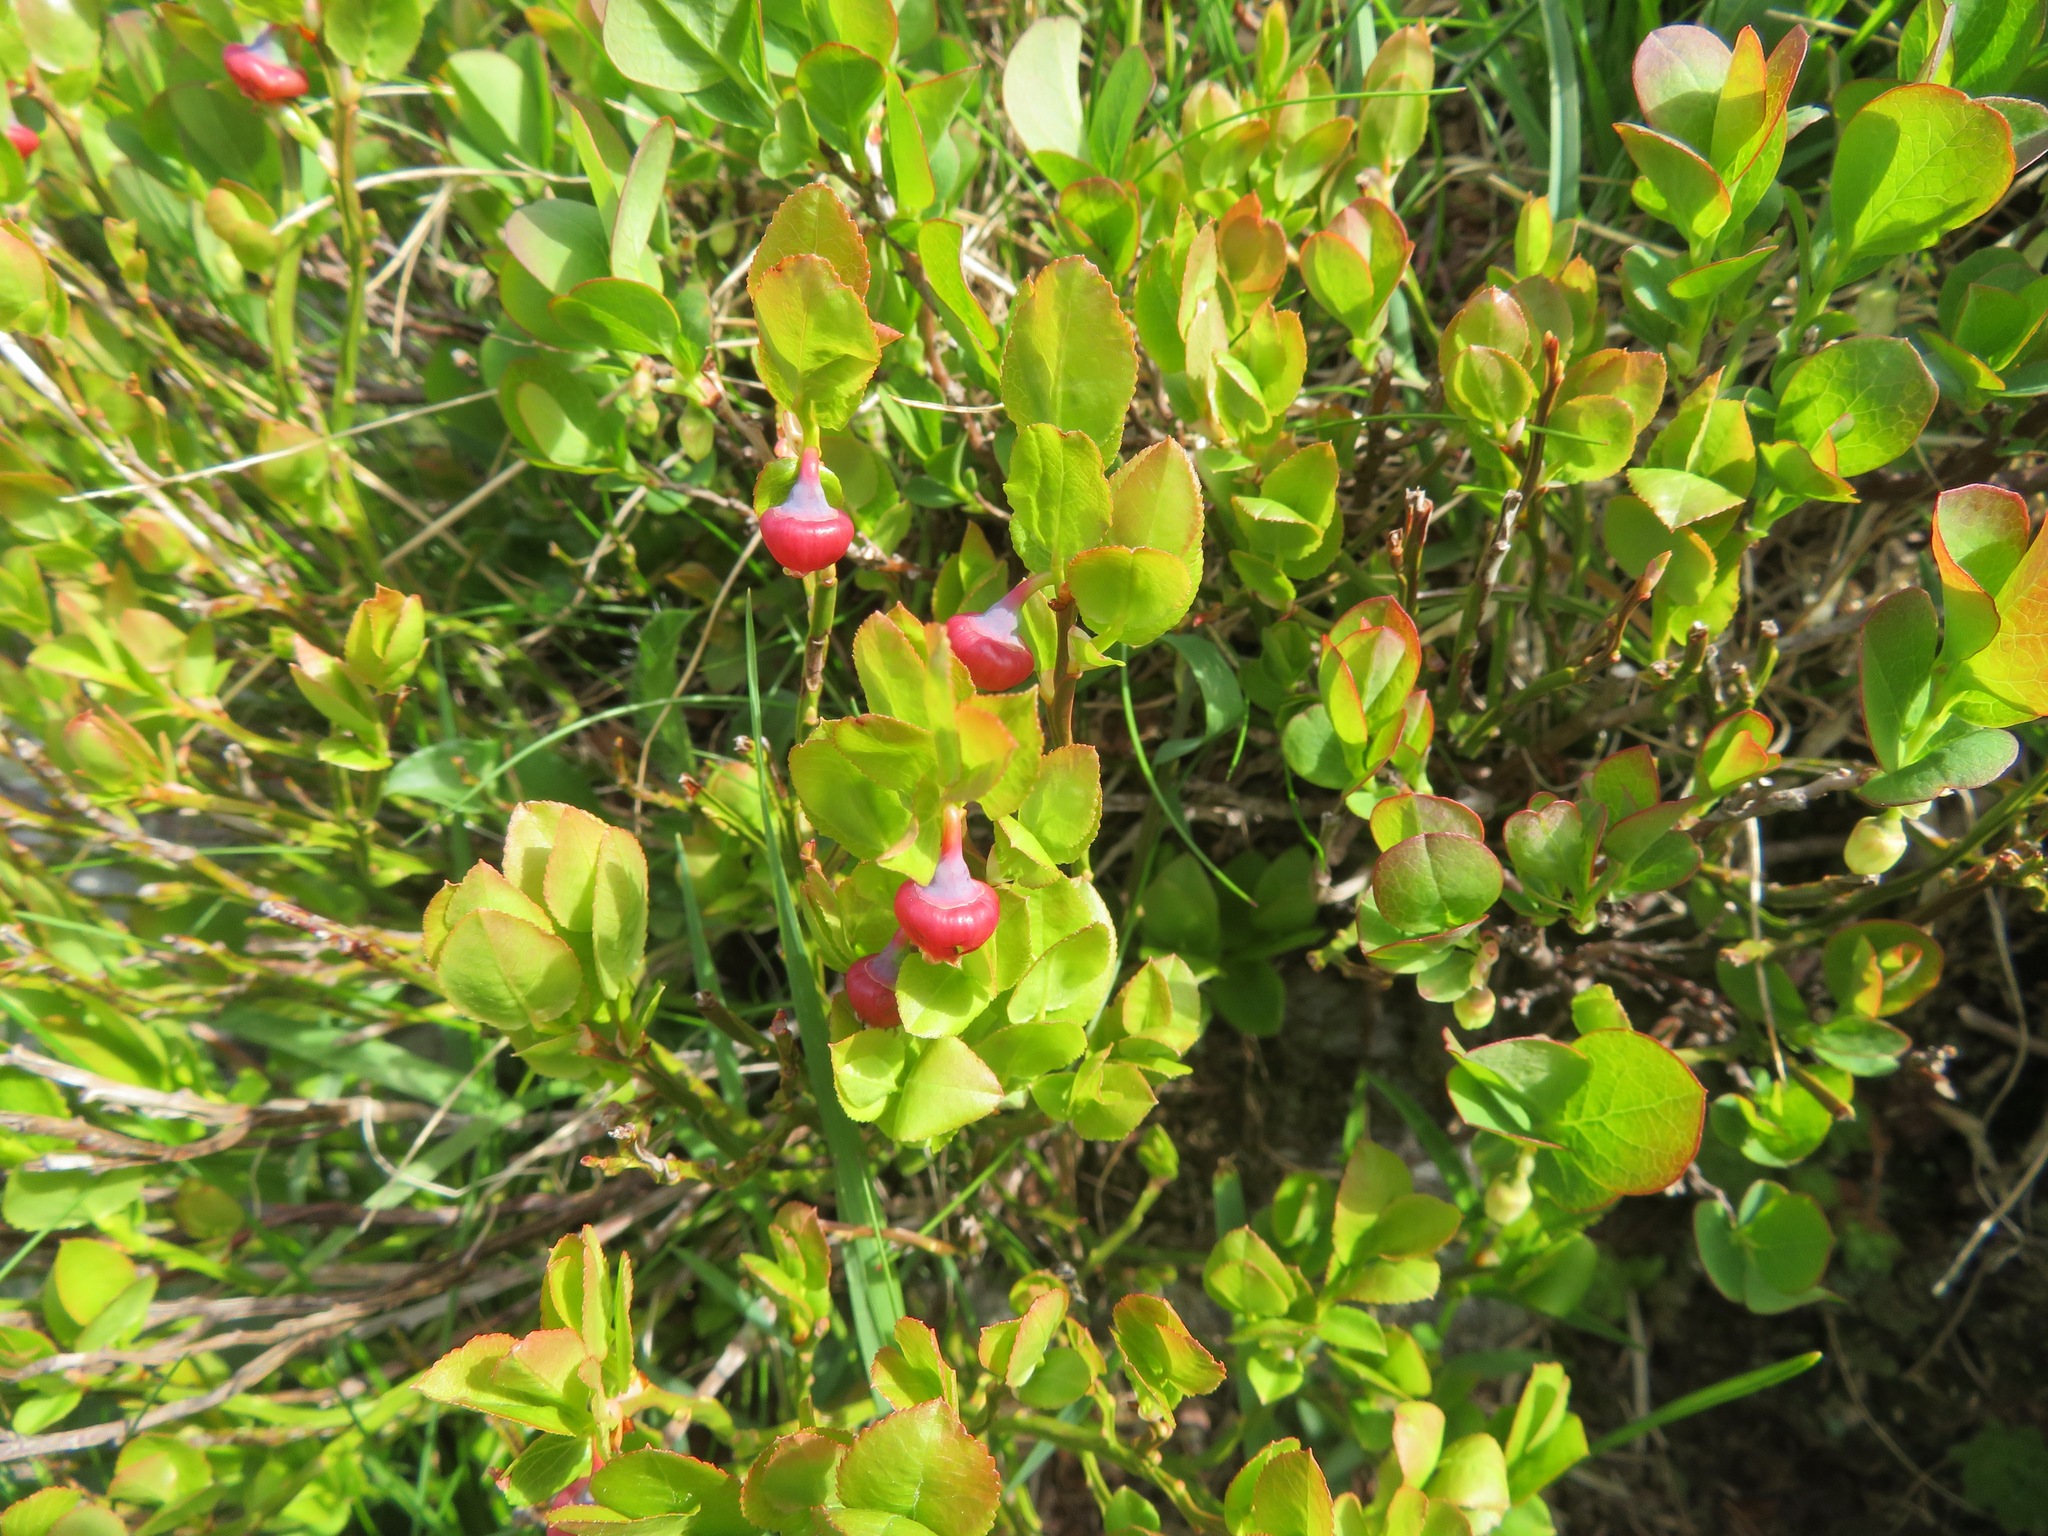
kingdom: Plantae
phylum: Tracheophyta
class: Magnoliopsida
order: Ericales
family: Ericaceae
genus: Vaccinium
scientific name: Vaccinium myrtillus
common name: Bilberry
